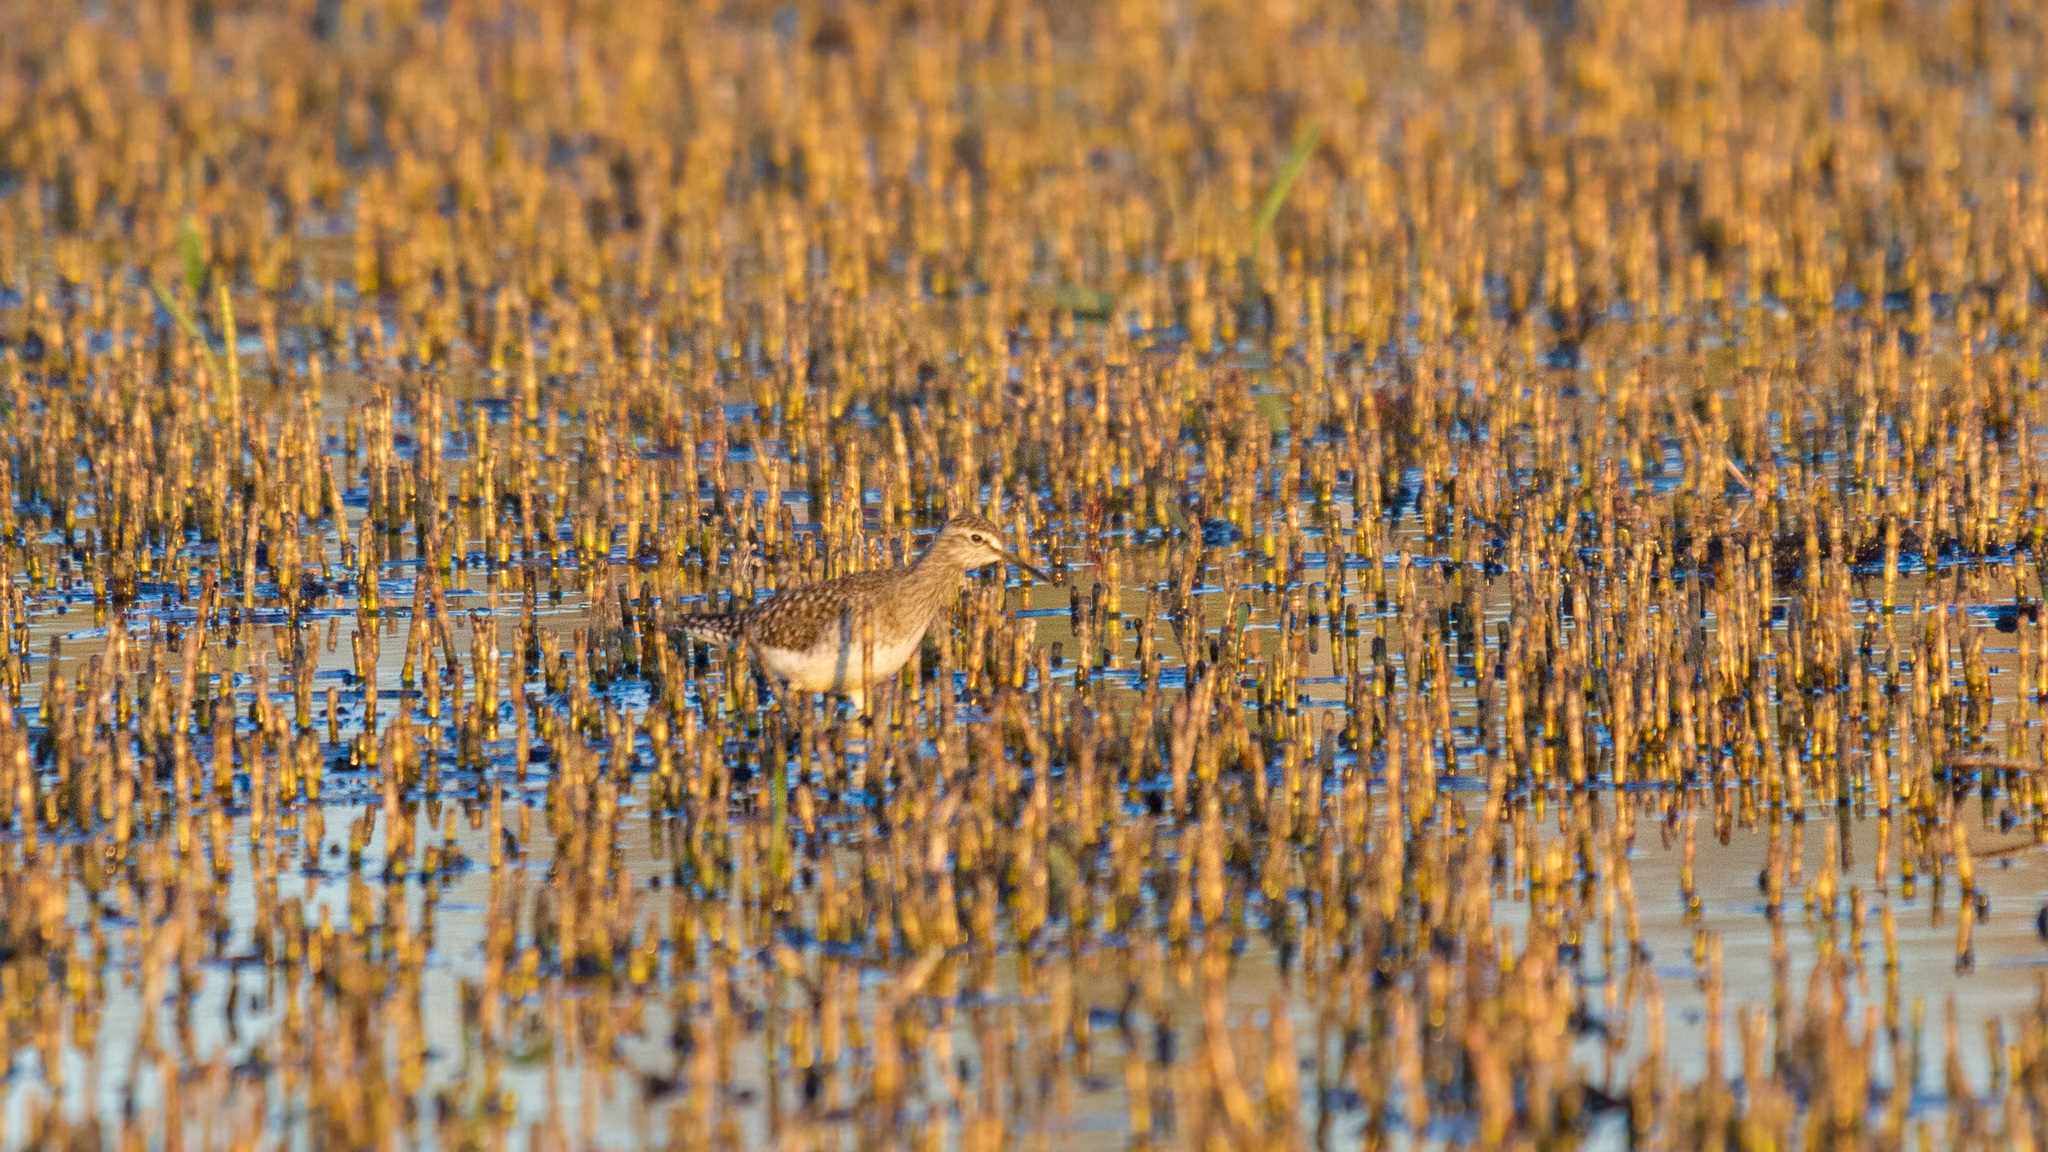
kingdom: Animalia
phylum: Chordata
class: Aves
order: Charadriiformes
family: Scolopacidae
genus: Tringa
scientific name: Tringa glareola
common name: Wood sandpiper
